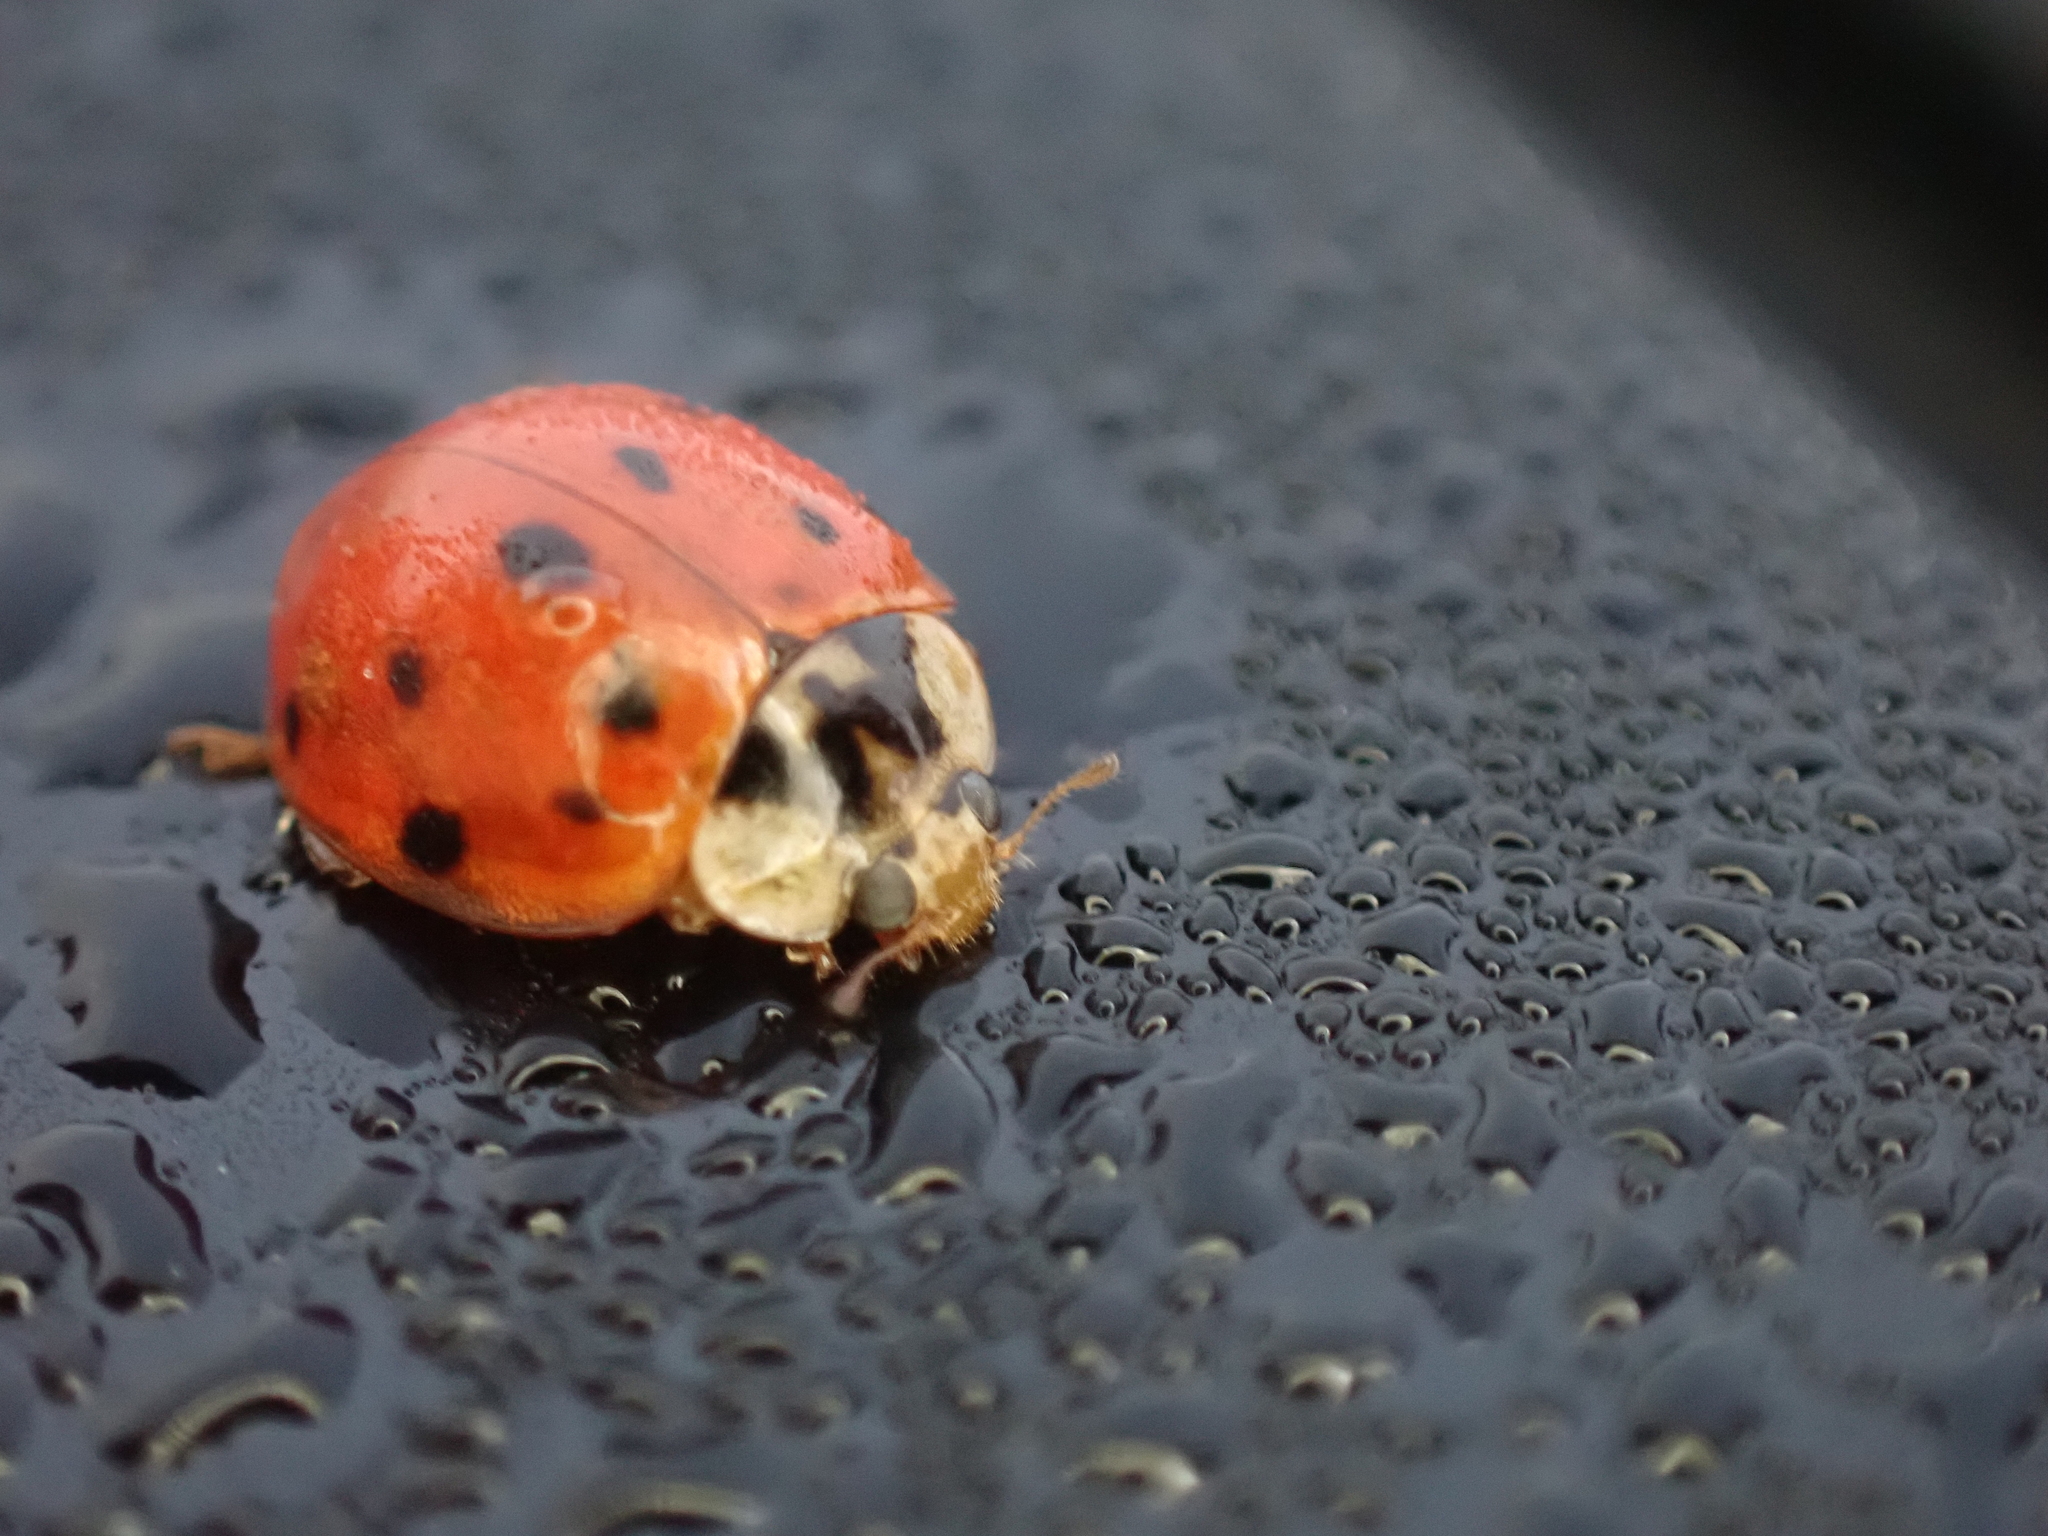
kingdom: Animalia
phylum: Arthropoda
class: Insecta
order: Coleoptera
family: Coccinellidae
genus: Harmonia
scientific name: Harmonia axyridis
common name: Harlequin ladybird
